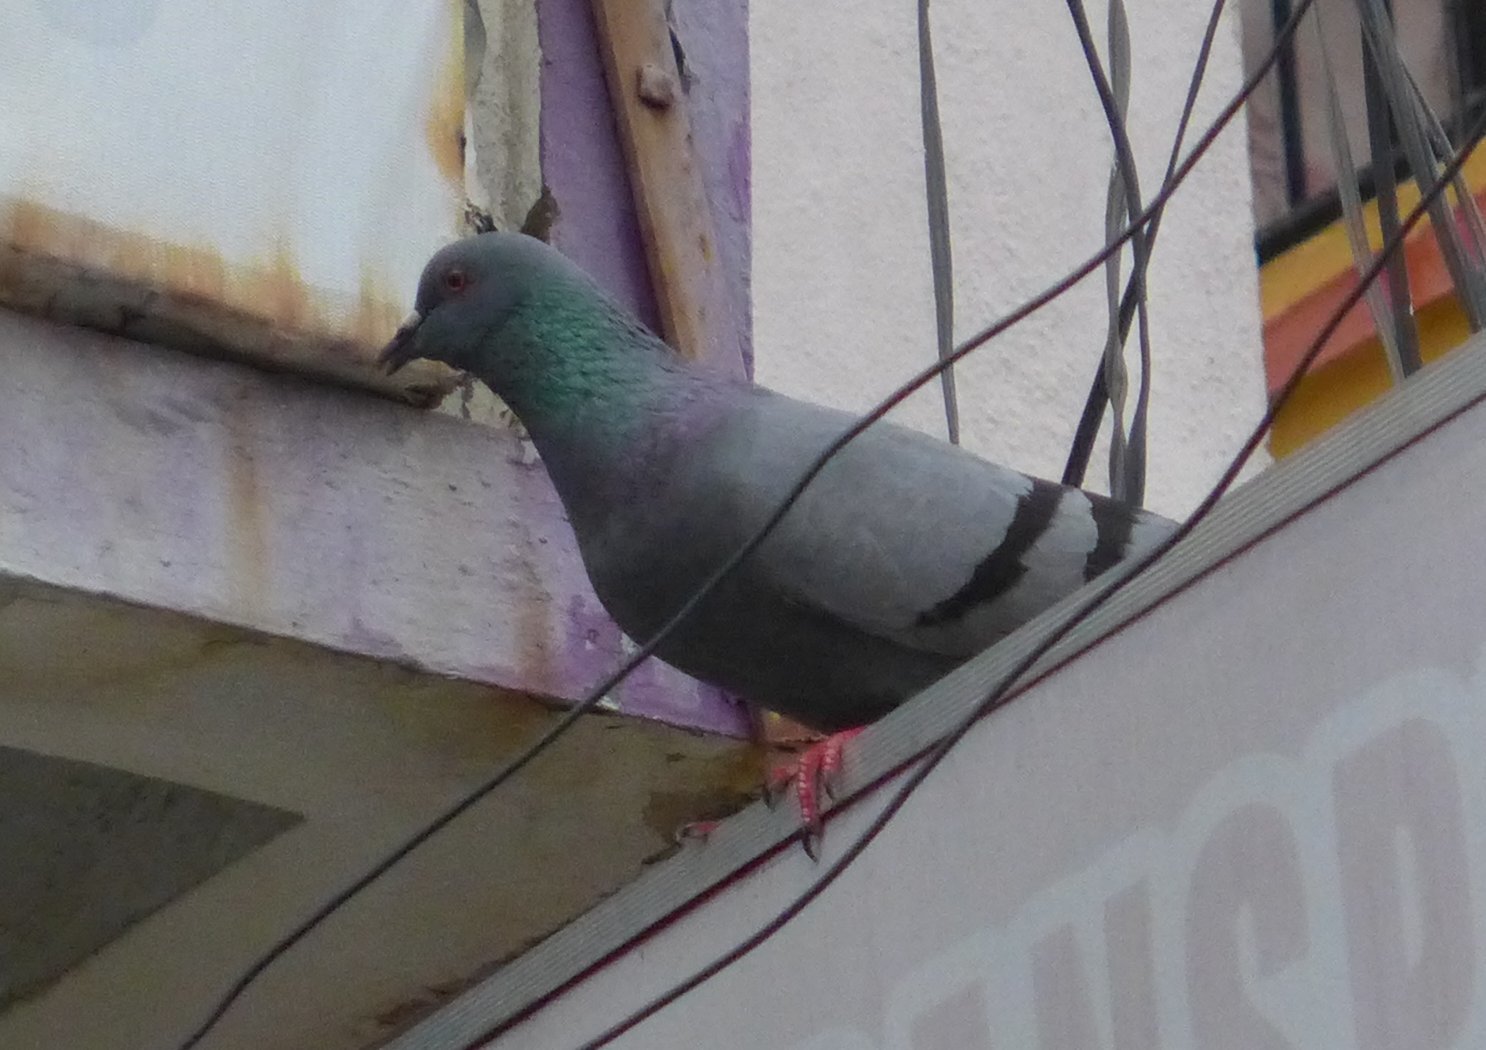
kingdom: Animalia
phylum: Chordata
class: Aves
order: Columbiformes
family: Columbidae
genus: Columba
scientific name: Columba livia
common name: Rock pigeon
